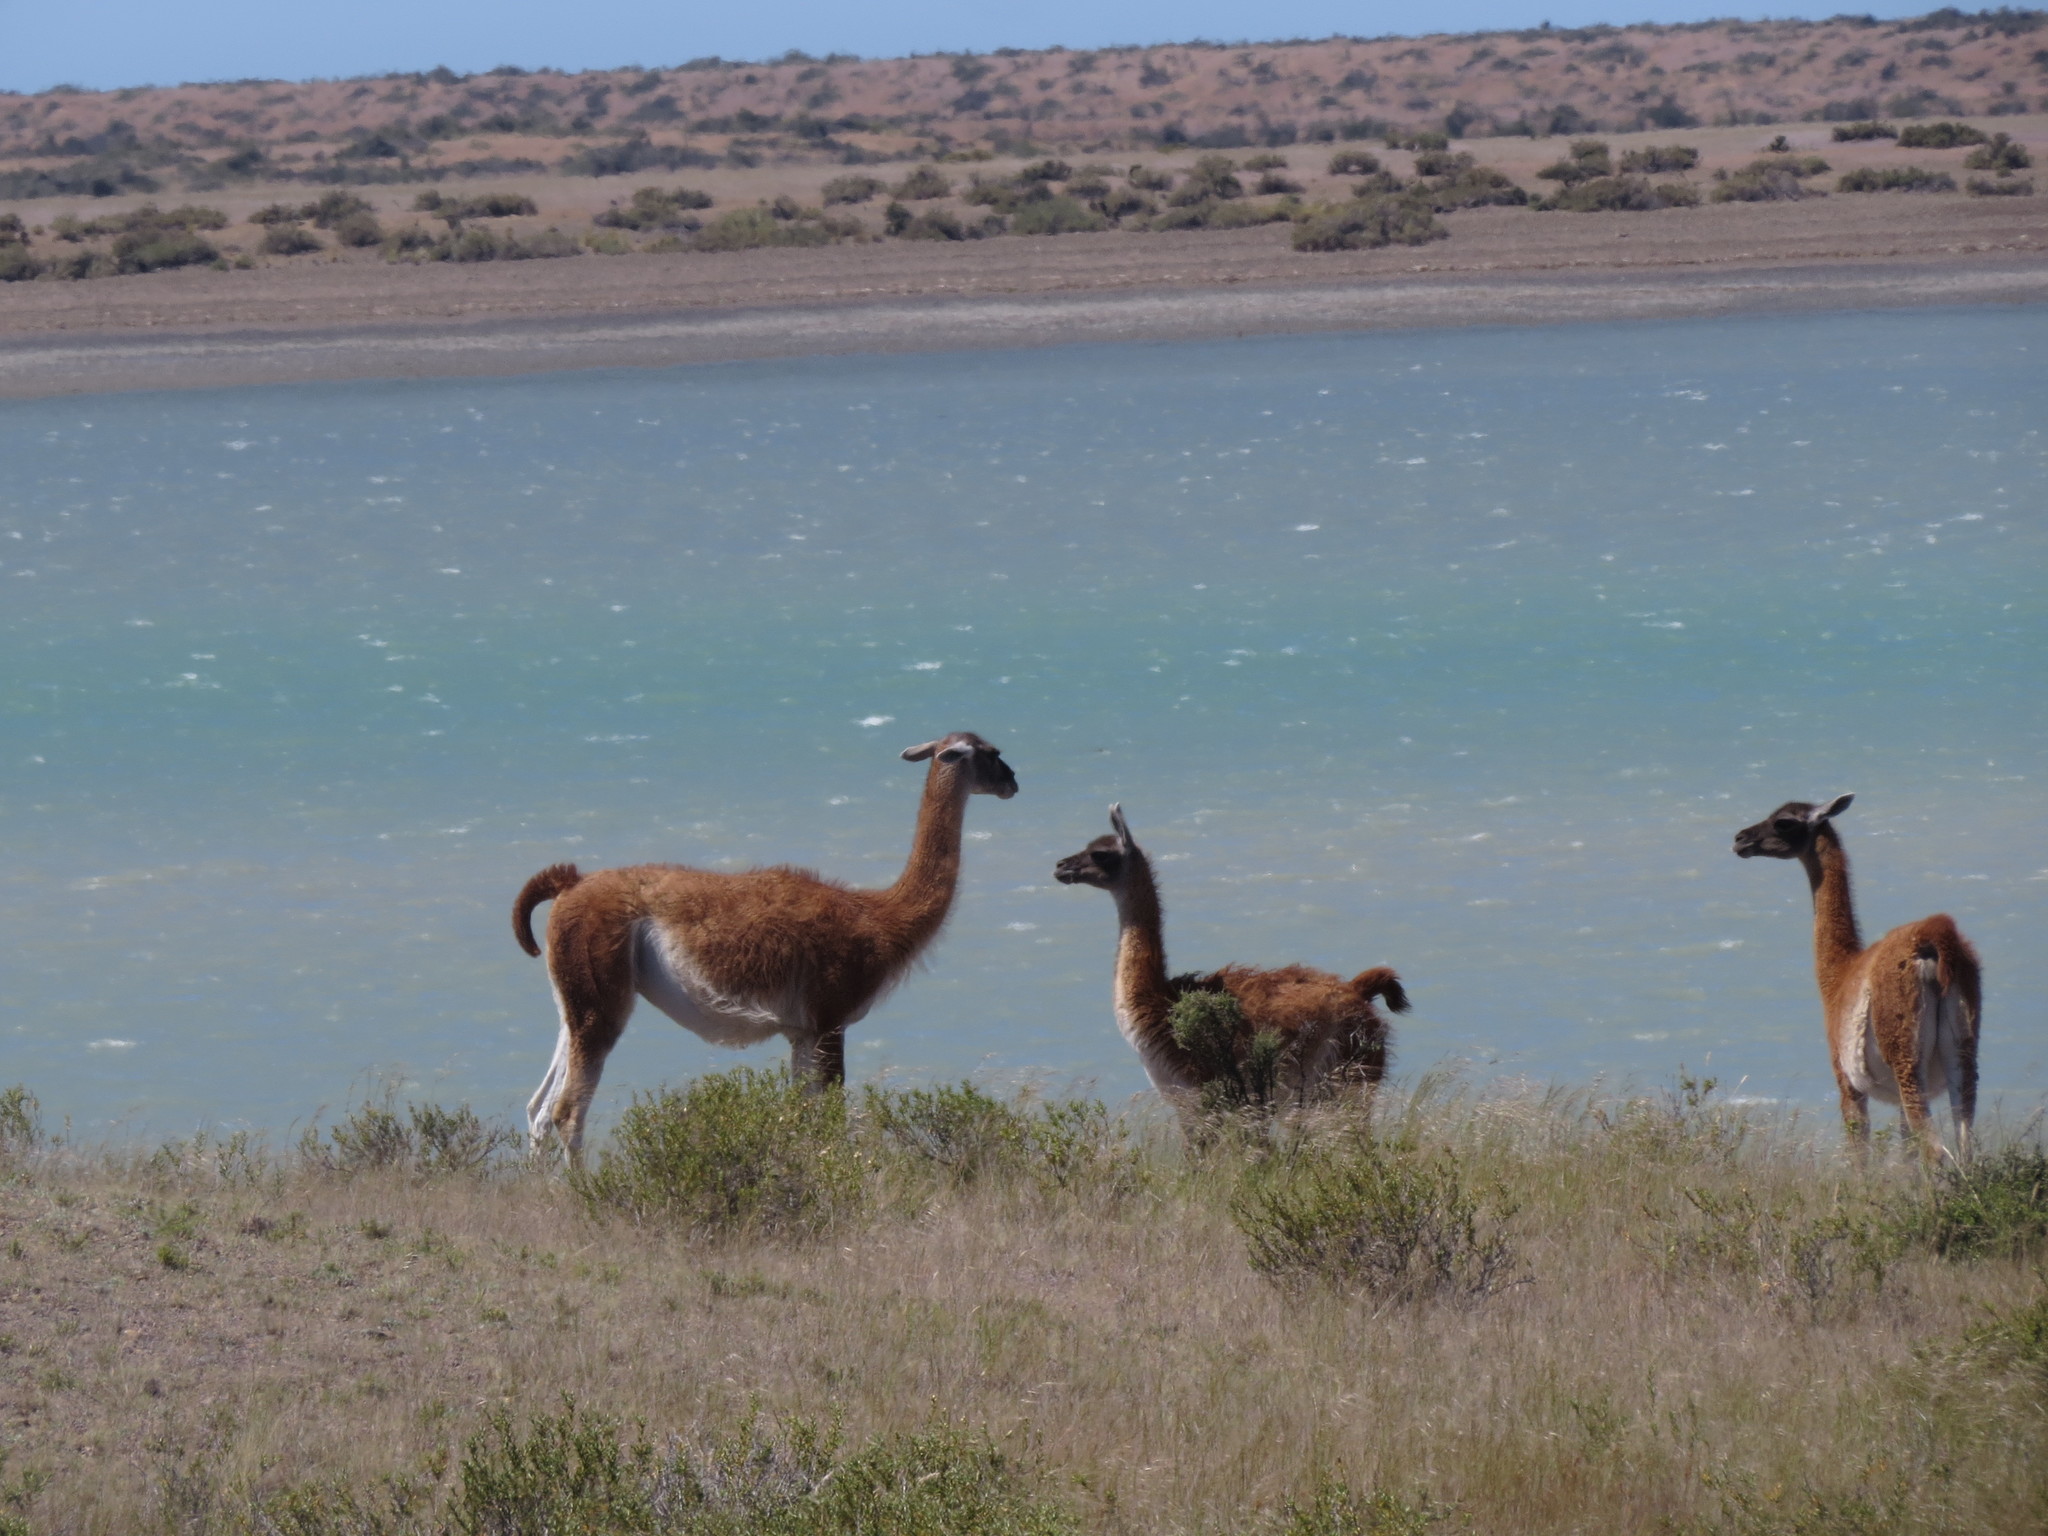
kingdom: Animalia
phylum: Chordata
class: Mammalia
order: Artiodactyla
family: Camelidae
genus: Lama
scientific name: Lama glama
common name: Llama
